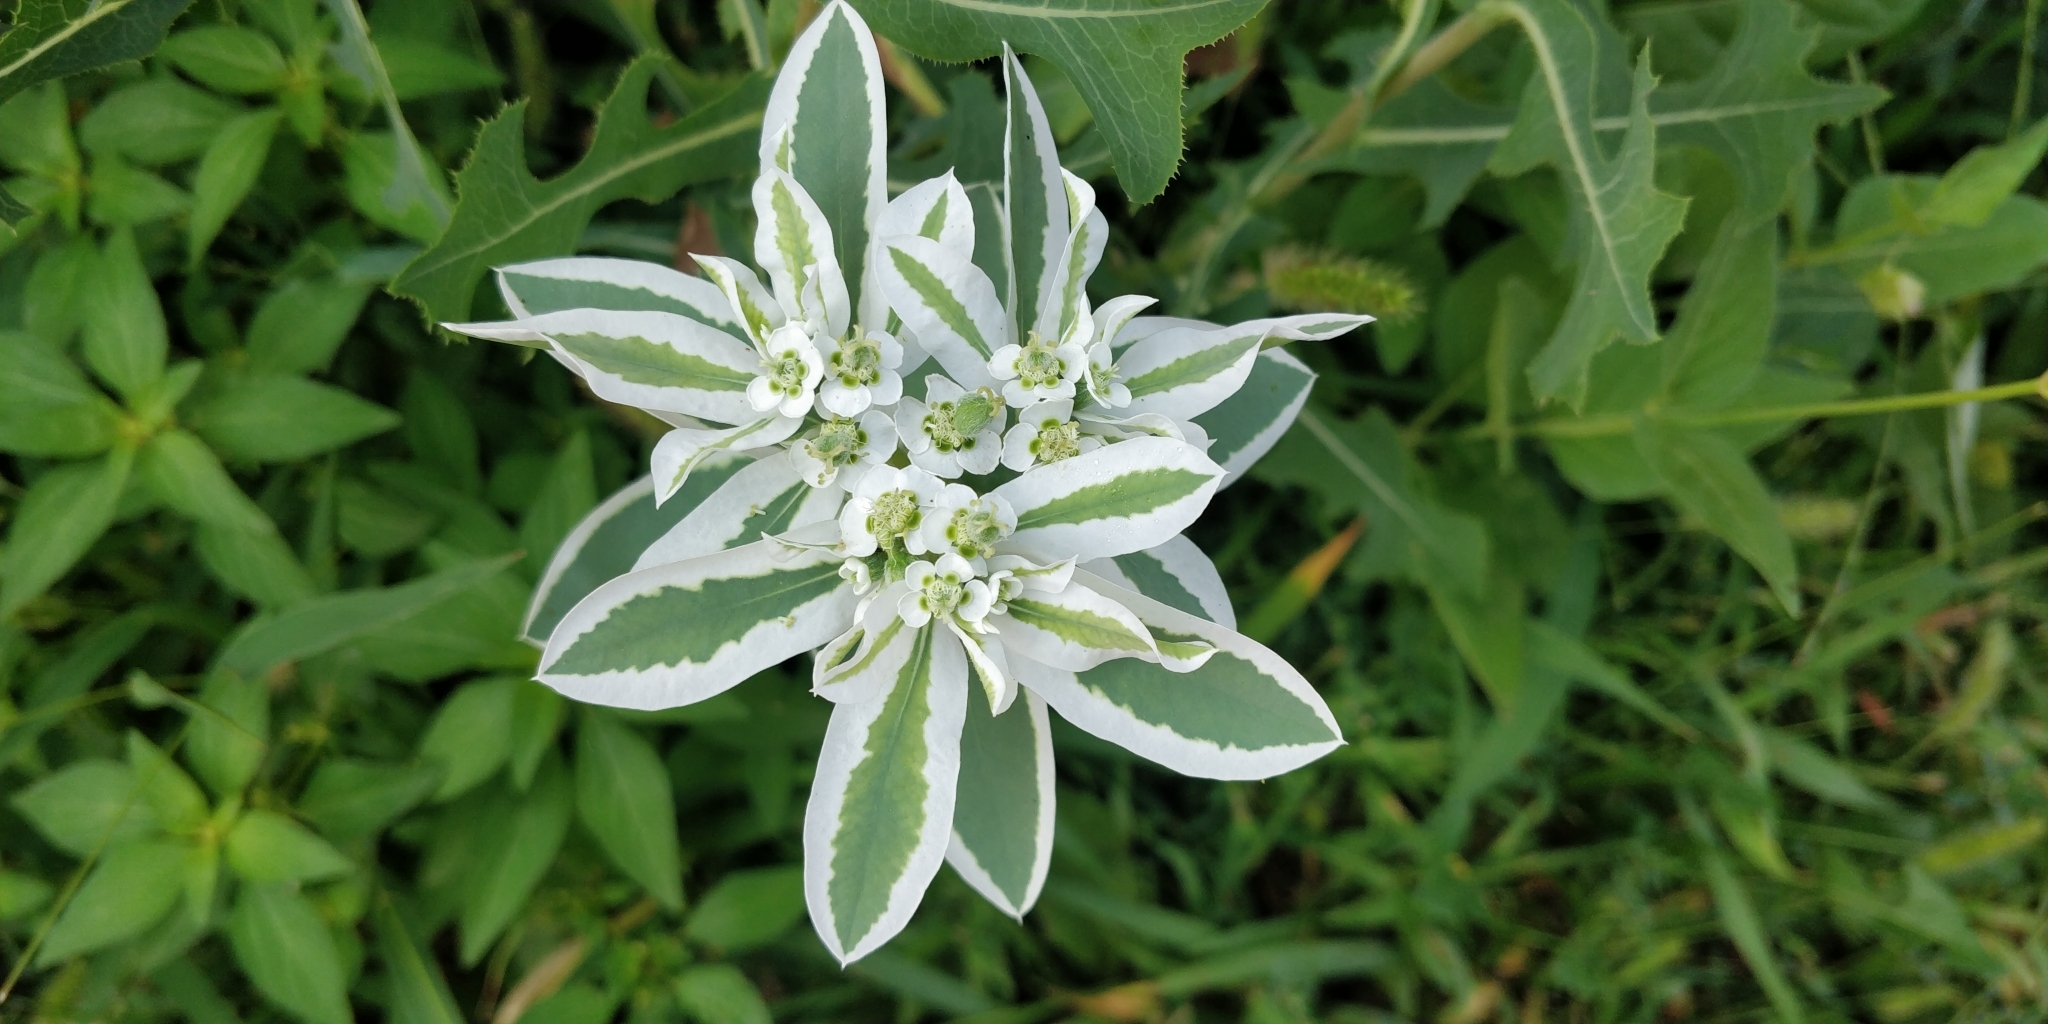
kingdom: Plantae
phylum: Tracheophyta
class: Magnoliopsida
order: Malpighiales
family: Euphorbiaceae
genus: Euphorbia
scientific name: Euphorbia marginata
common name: Ghostweed
